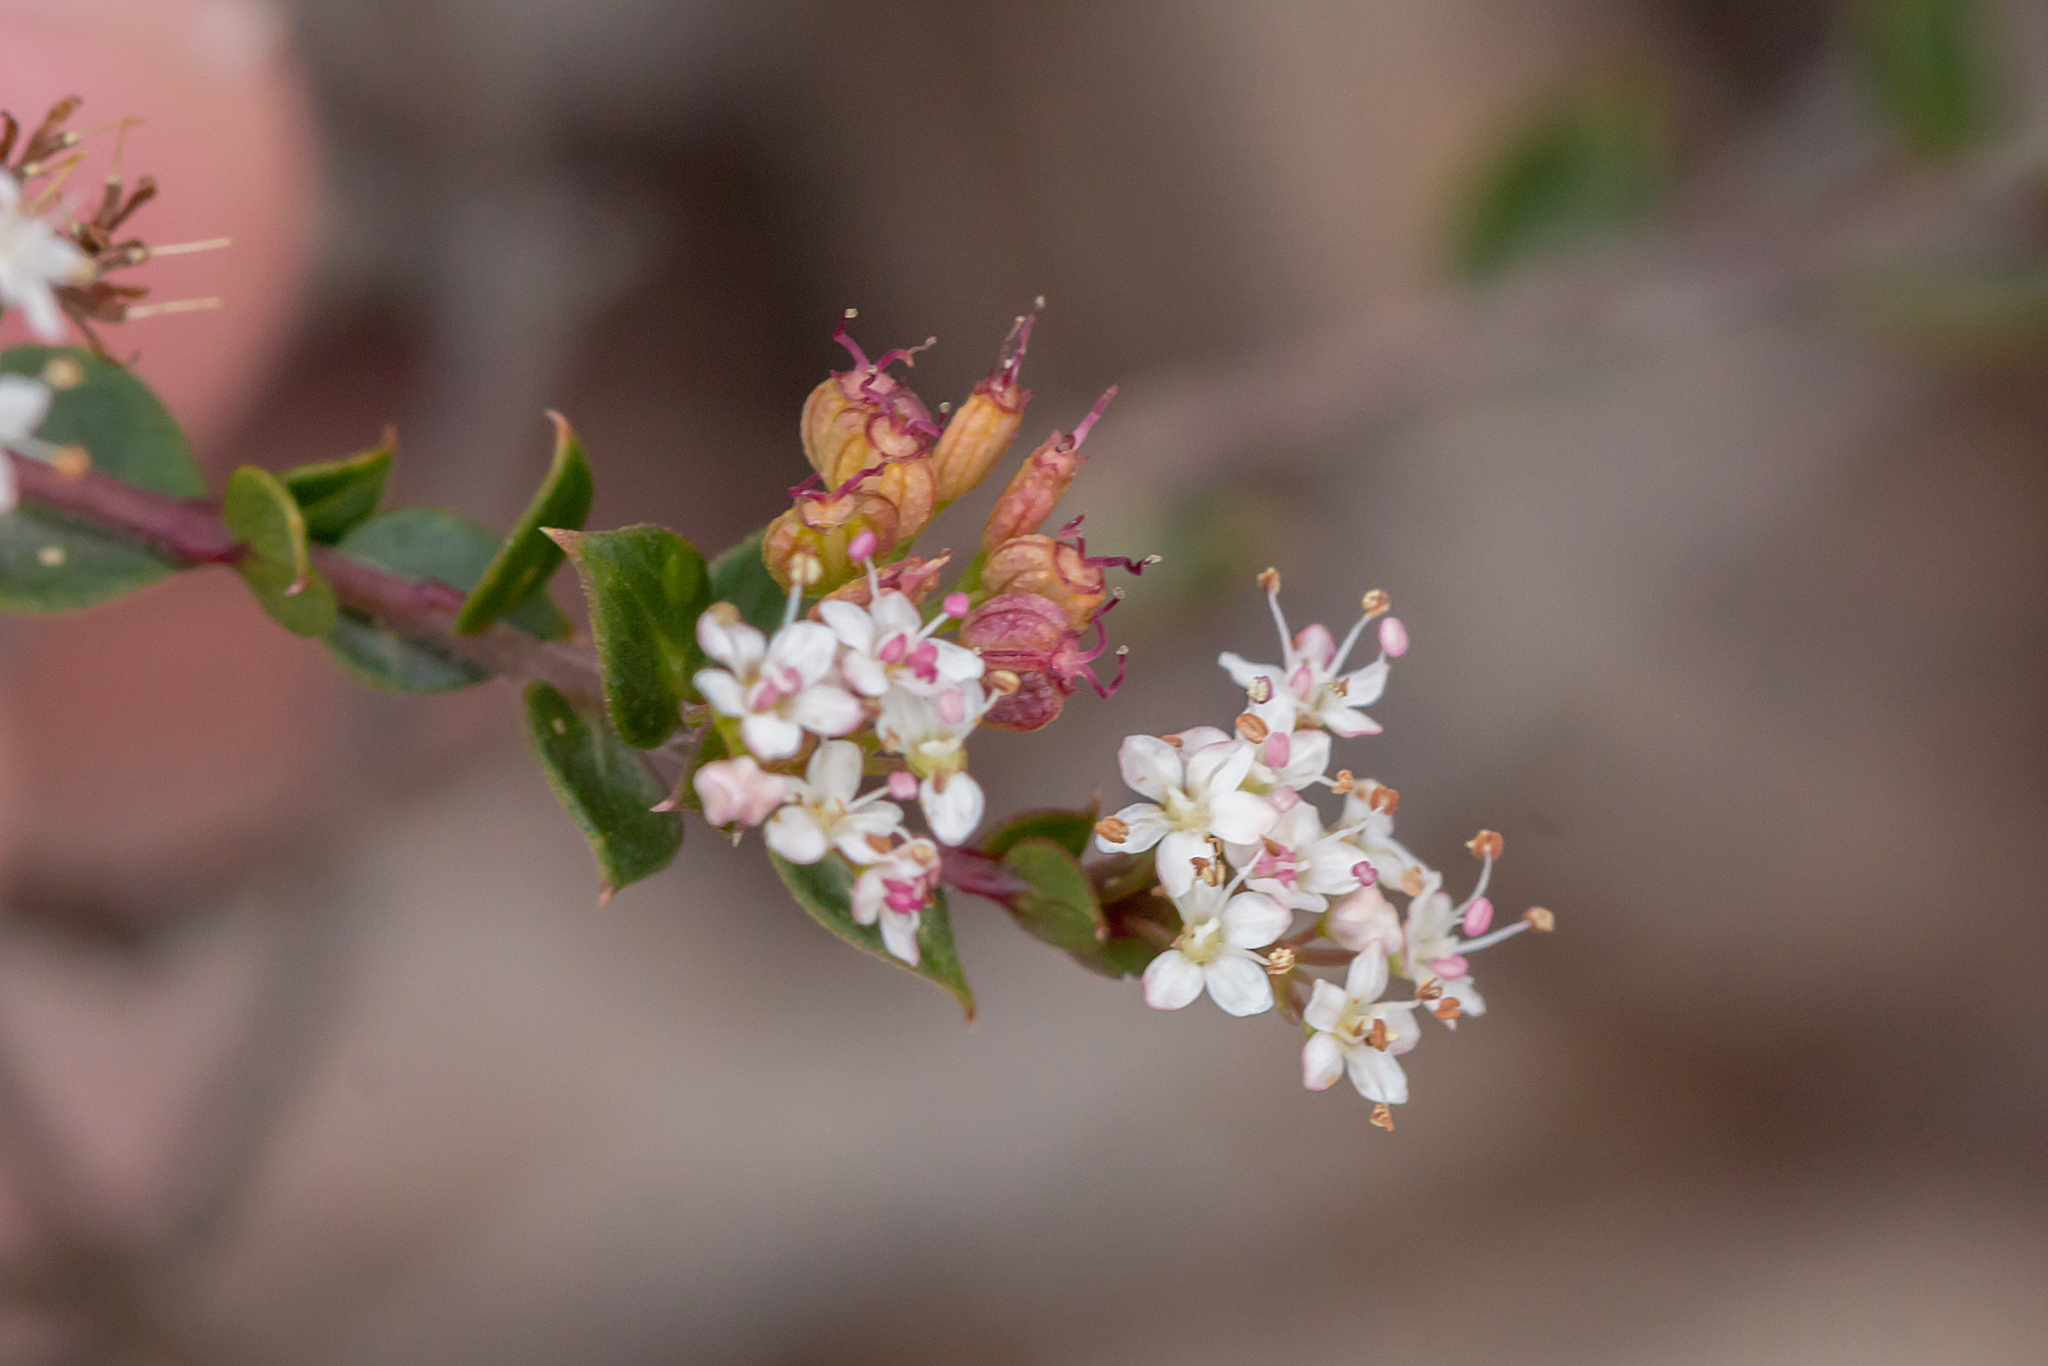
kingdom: Plantae
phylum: Tracheophyta
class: Magnoliopsida
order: Apiales
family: Apiaceae
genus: Platysace
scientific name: Platysace lanceolata
